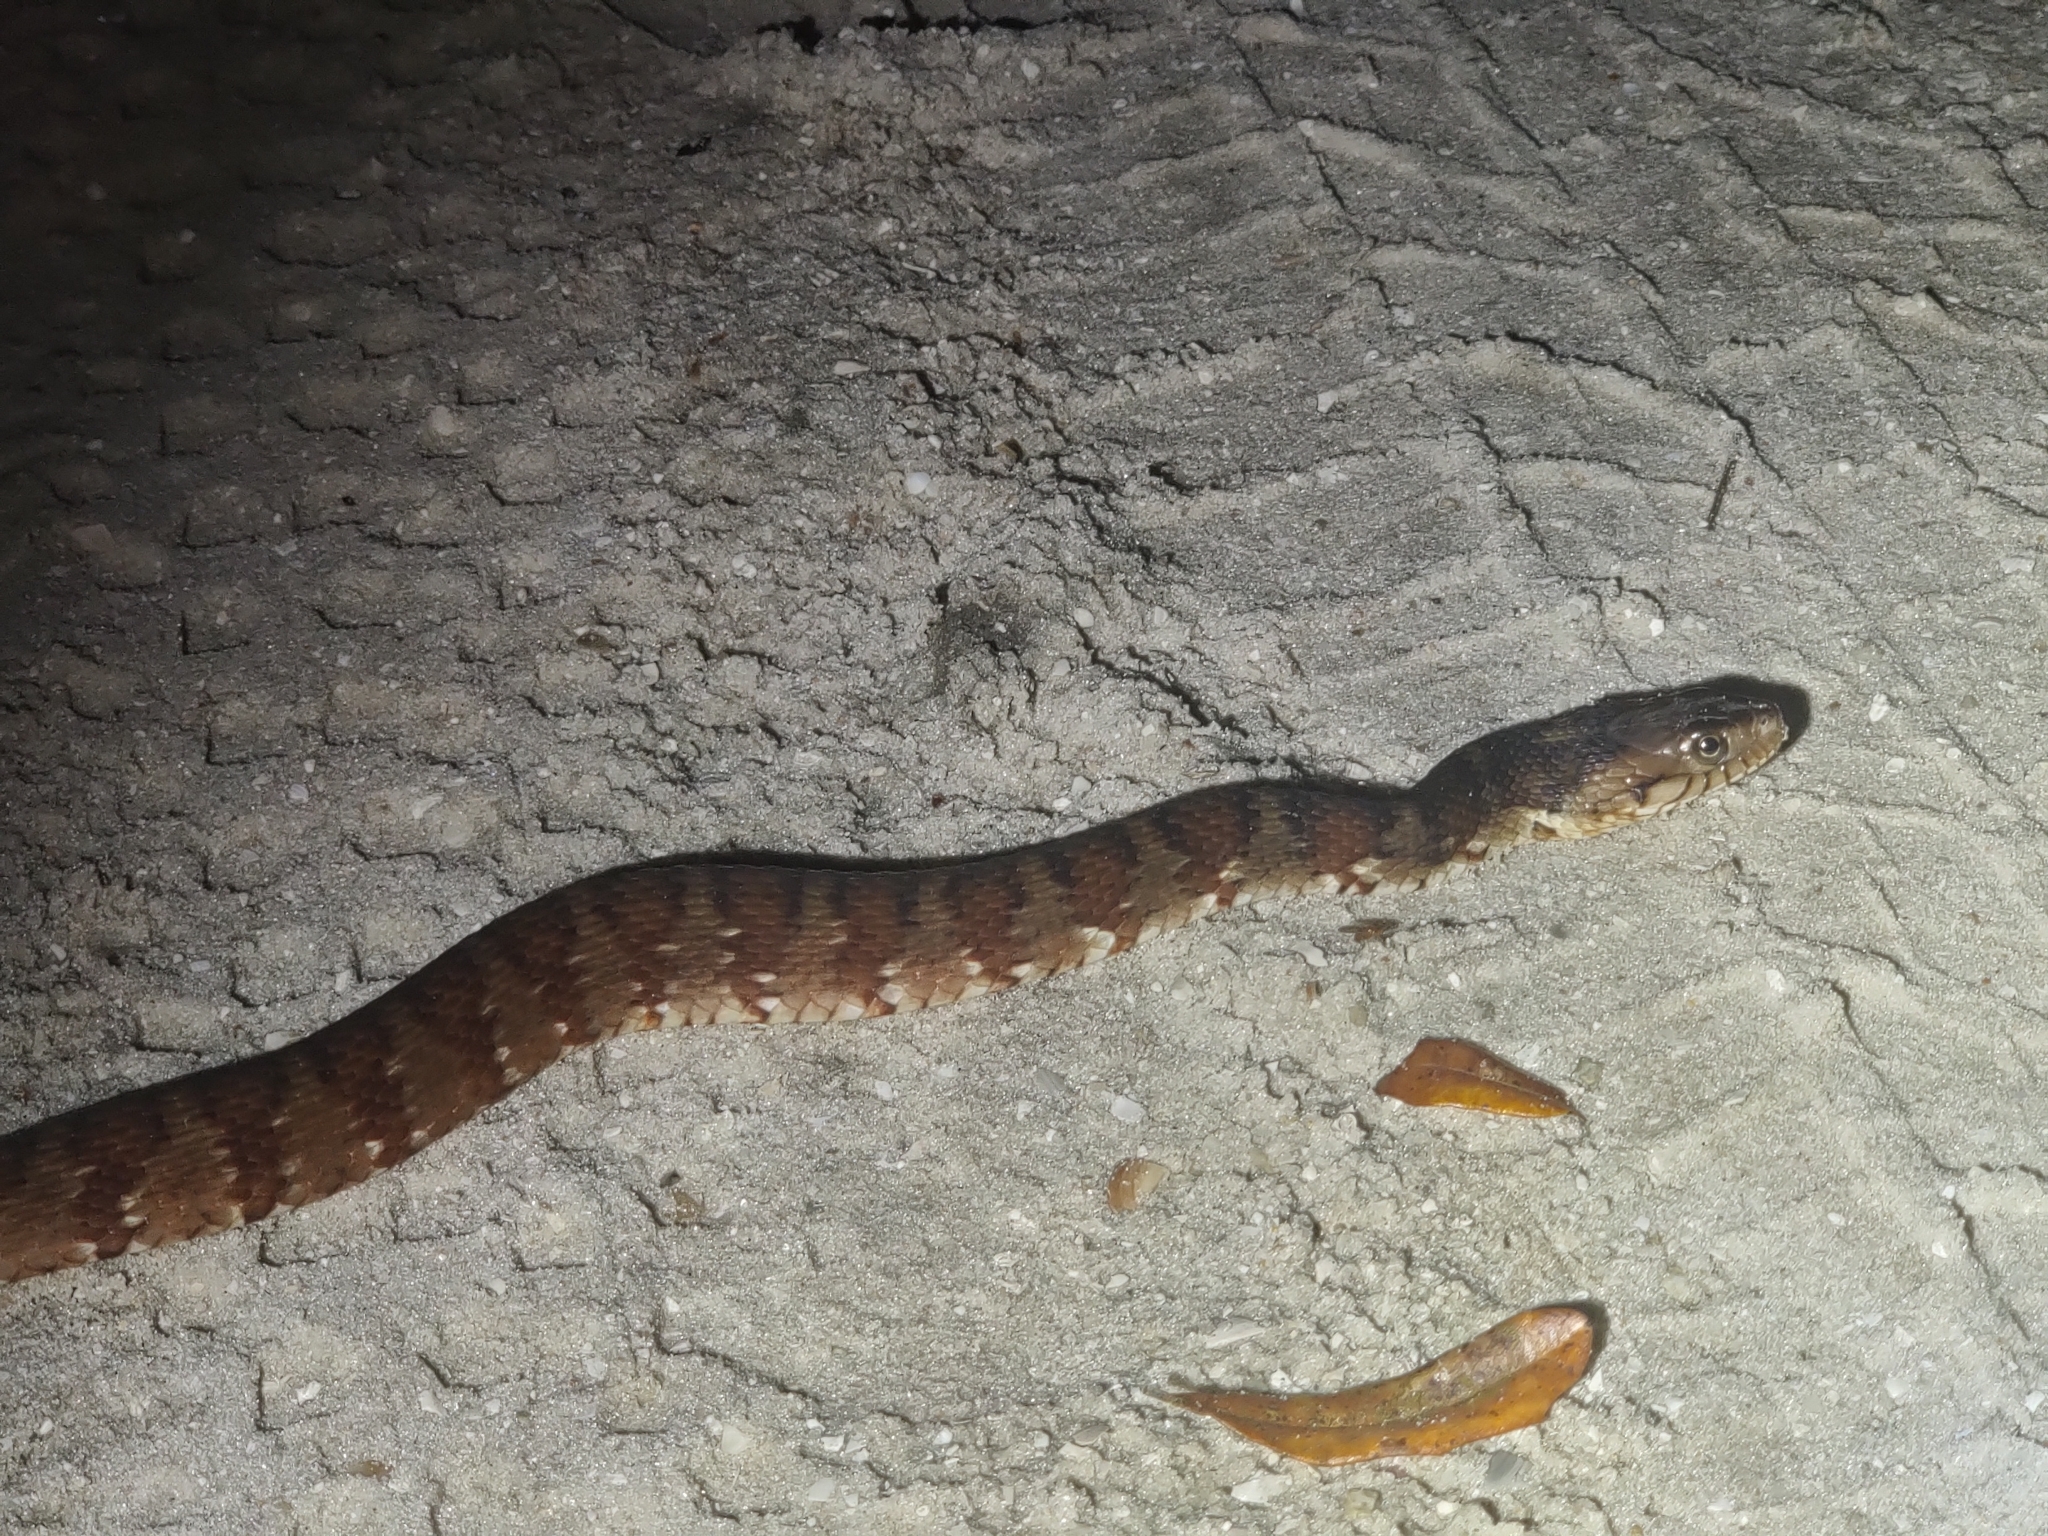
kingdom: Animalia
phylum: Chordata
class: Squamata
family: Colubridae
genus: Nerodia
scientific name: Nerodia fasciata
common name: Southern water snake
